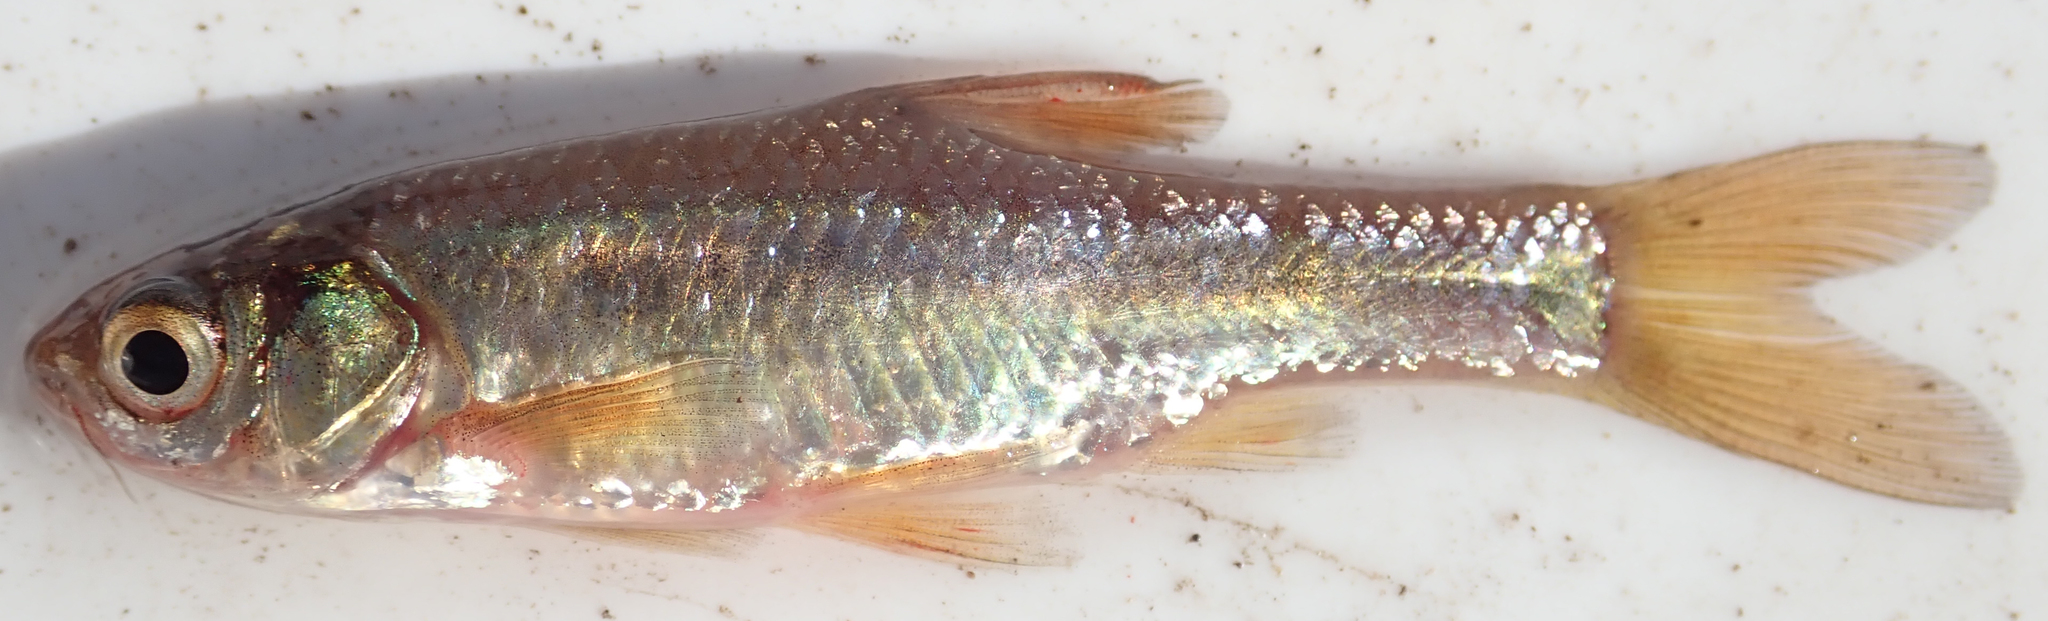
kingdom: Animalia
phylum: Chordata
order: Cypriniformes
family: Cyprinidae
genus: Enteromius
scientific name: Enteromius paludinosus
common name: Straightfin barb
